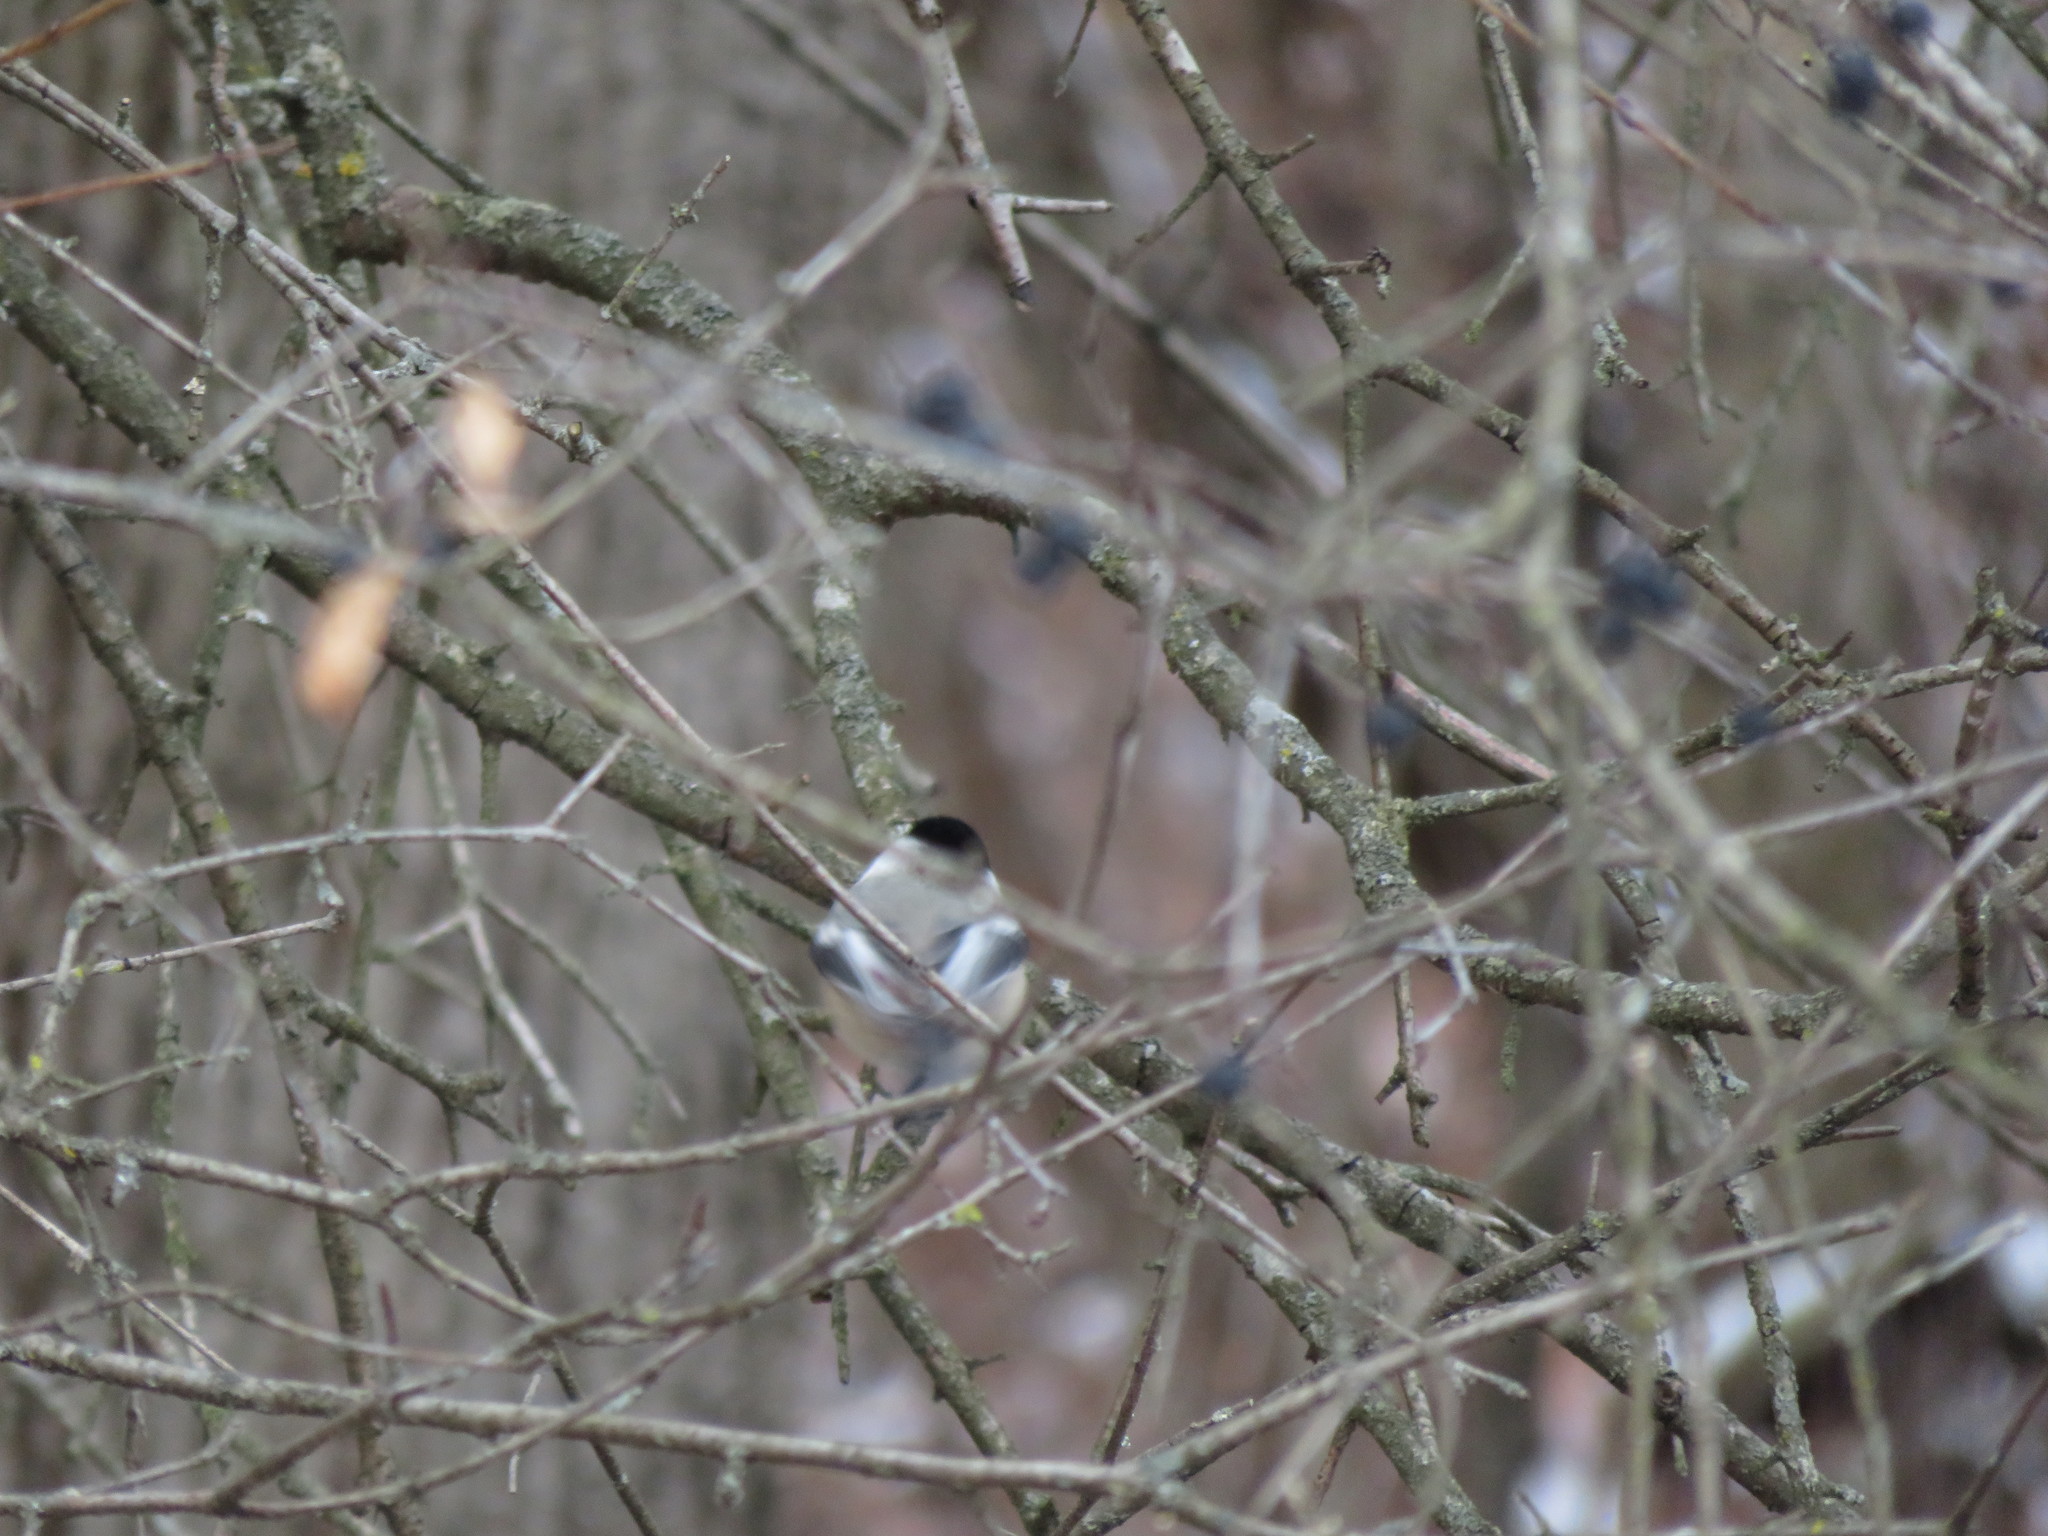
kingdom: Animalia
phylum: Chordata
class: Aves
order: Passeriformes
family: Paridae
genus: Poecile
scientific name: Poecile atricapillus
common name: Black-capped chickadee
